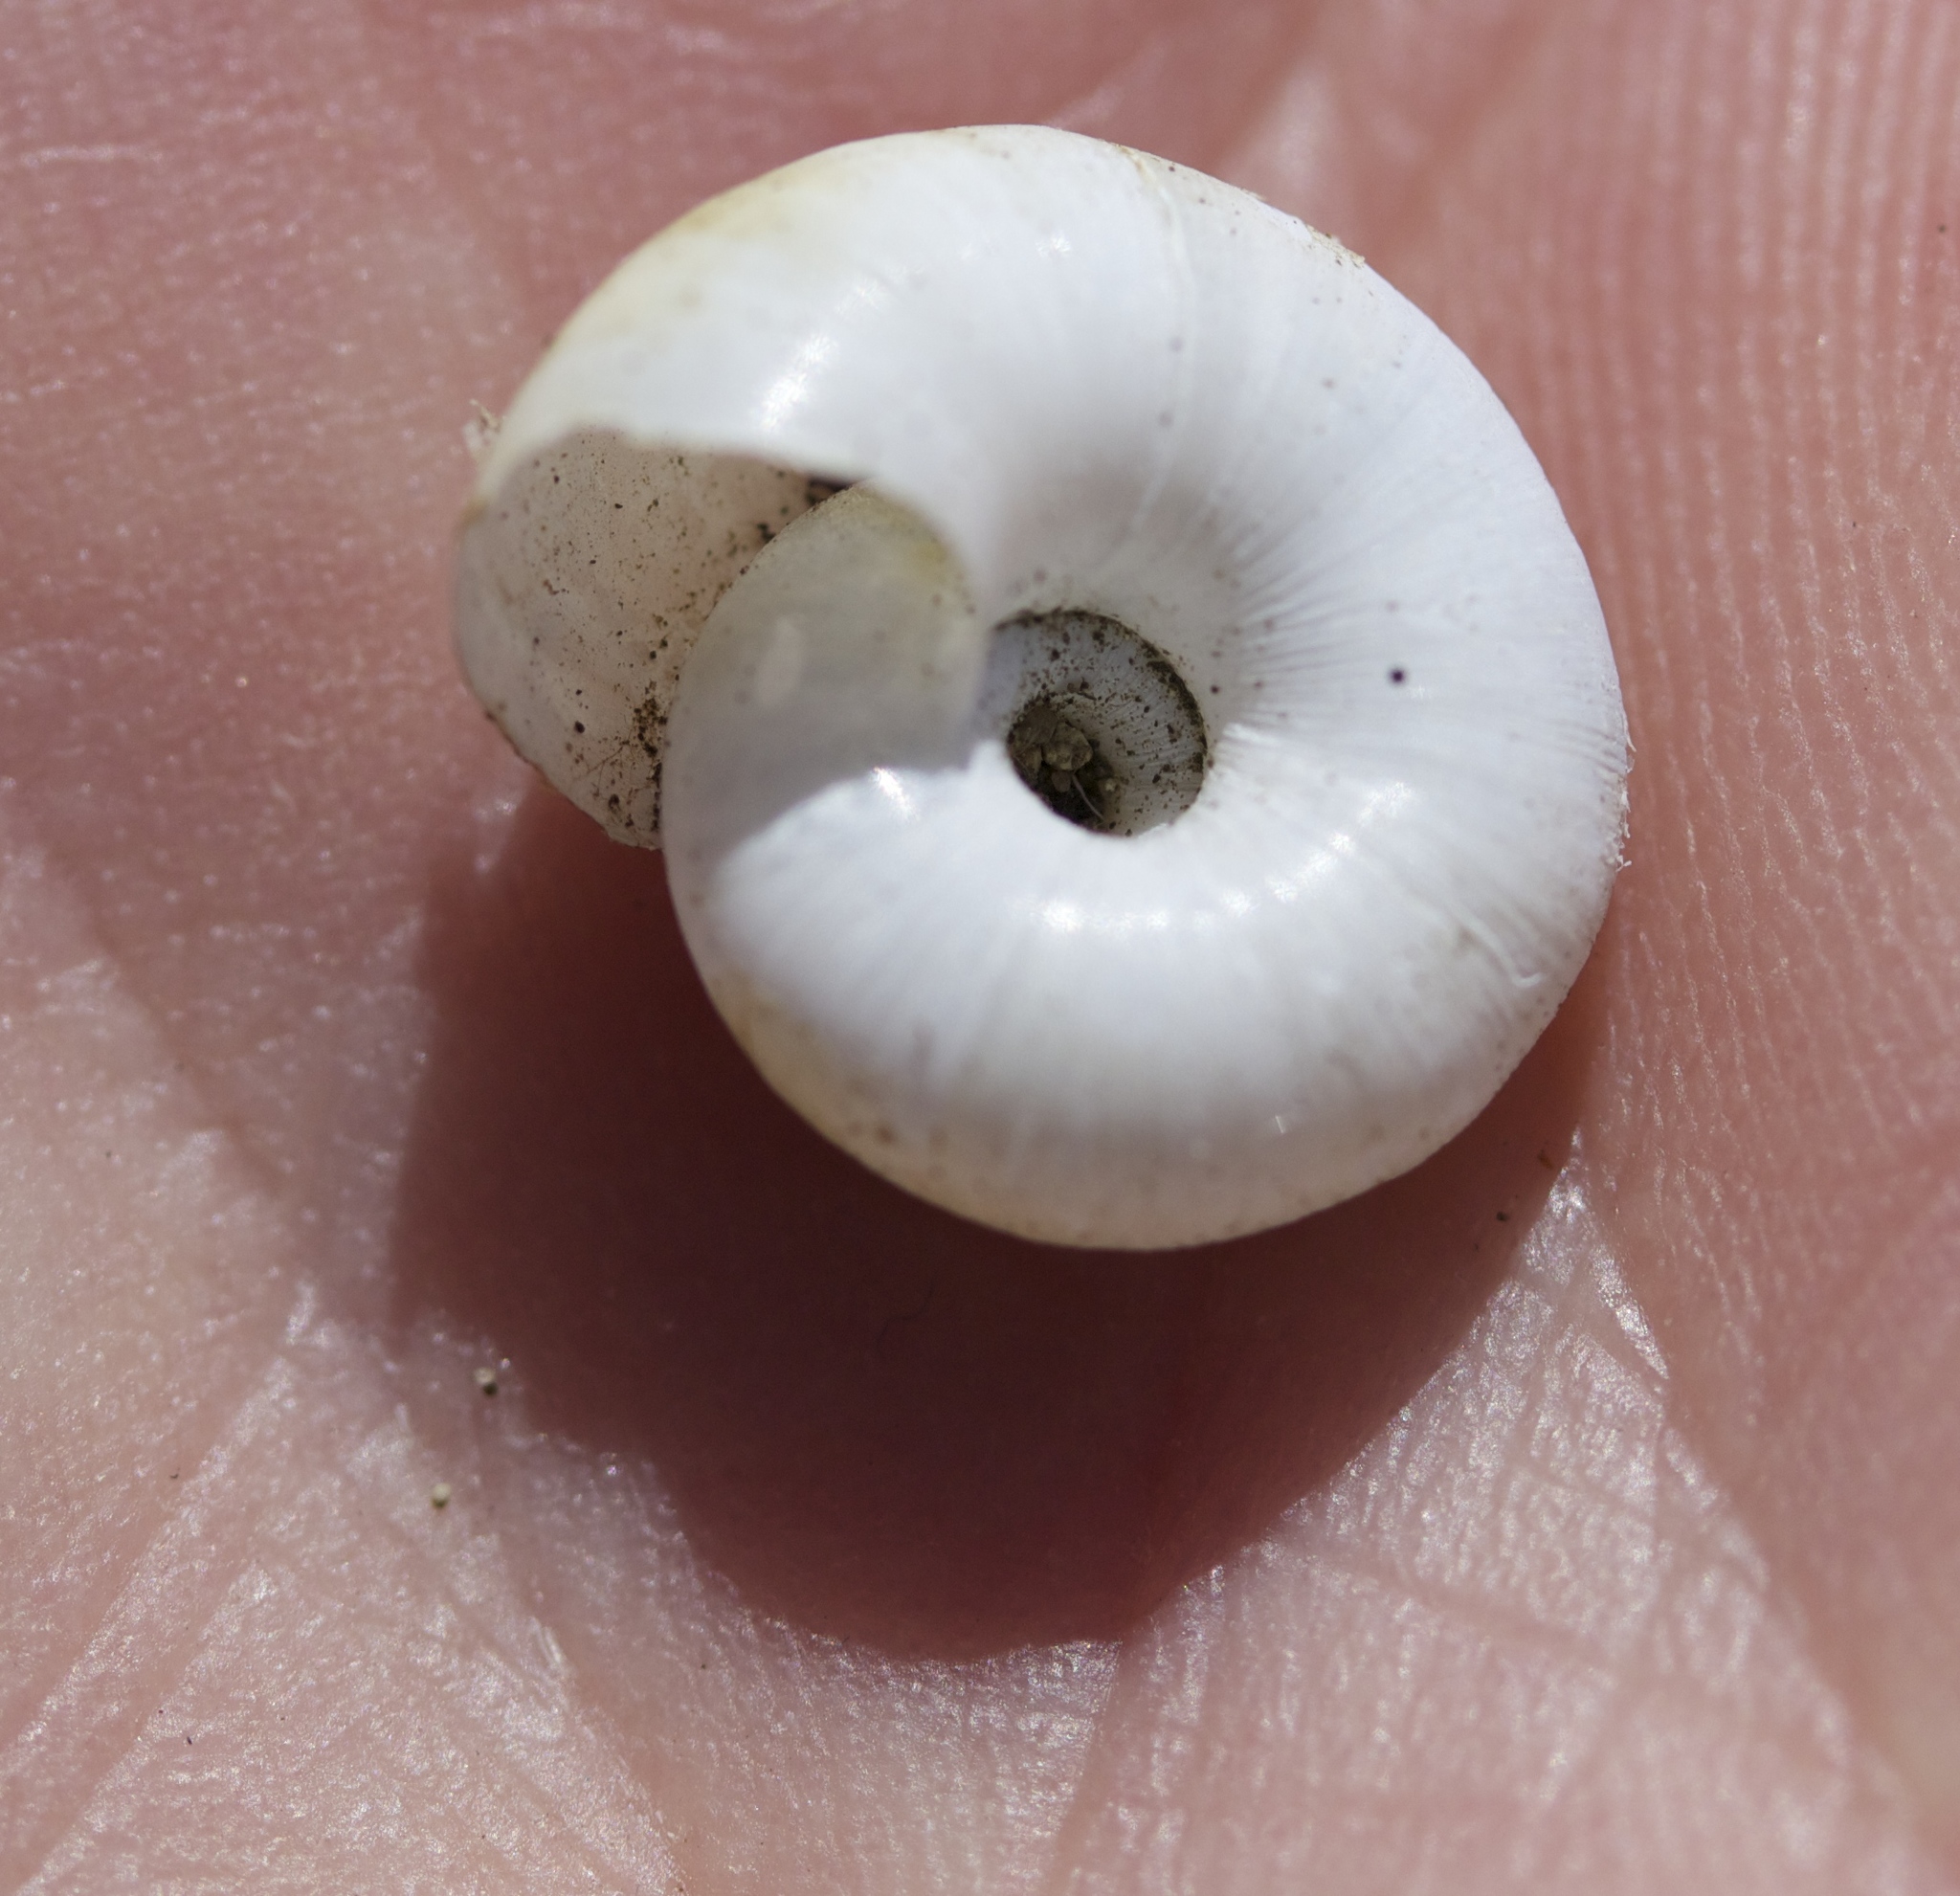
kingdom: Animalia
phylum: Mollusca
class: Gastropoda
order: Stylommatophora
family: Haplotrematidae
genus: Haplotrema
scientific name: Haplotrema minimum
